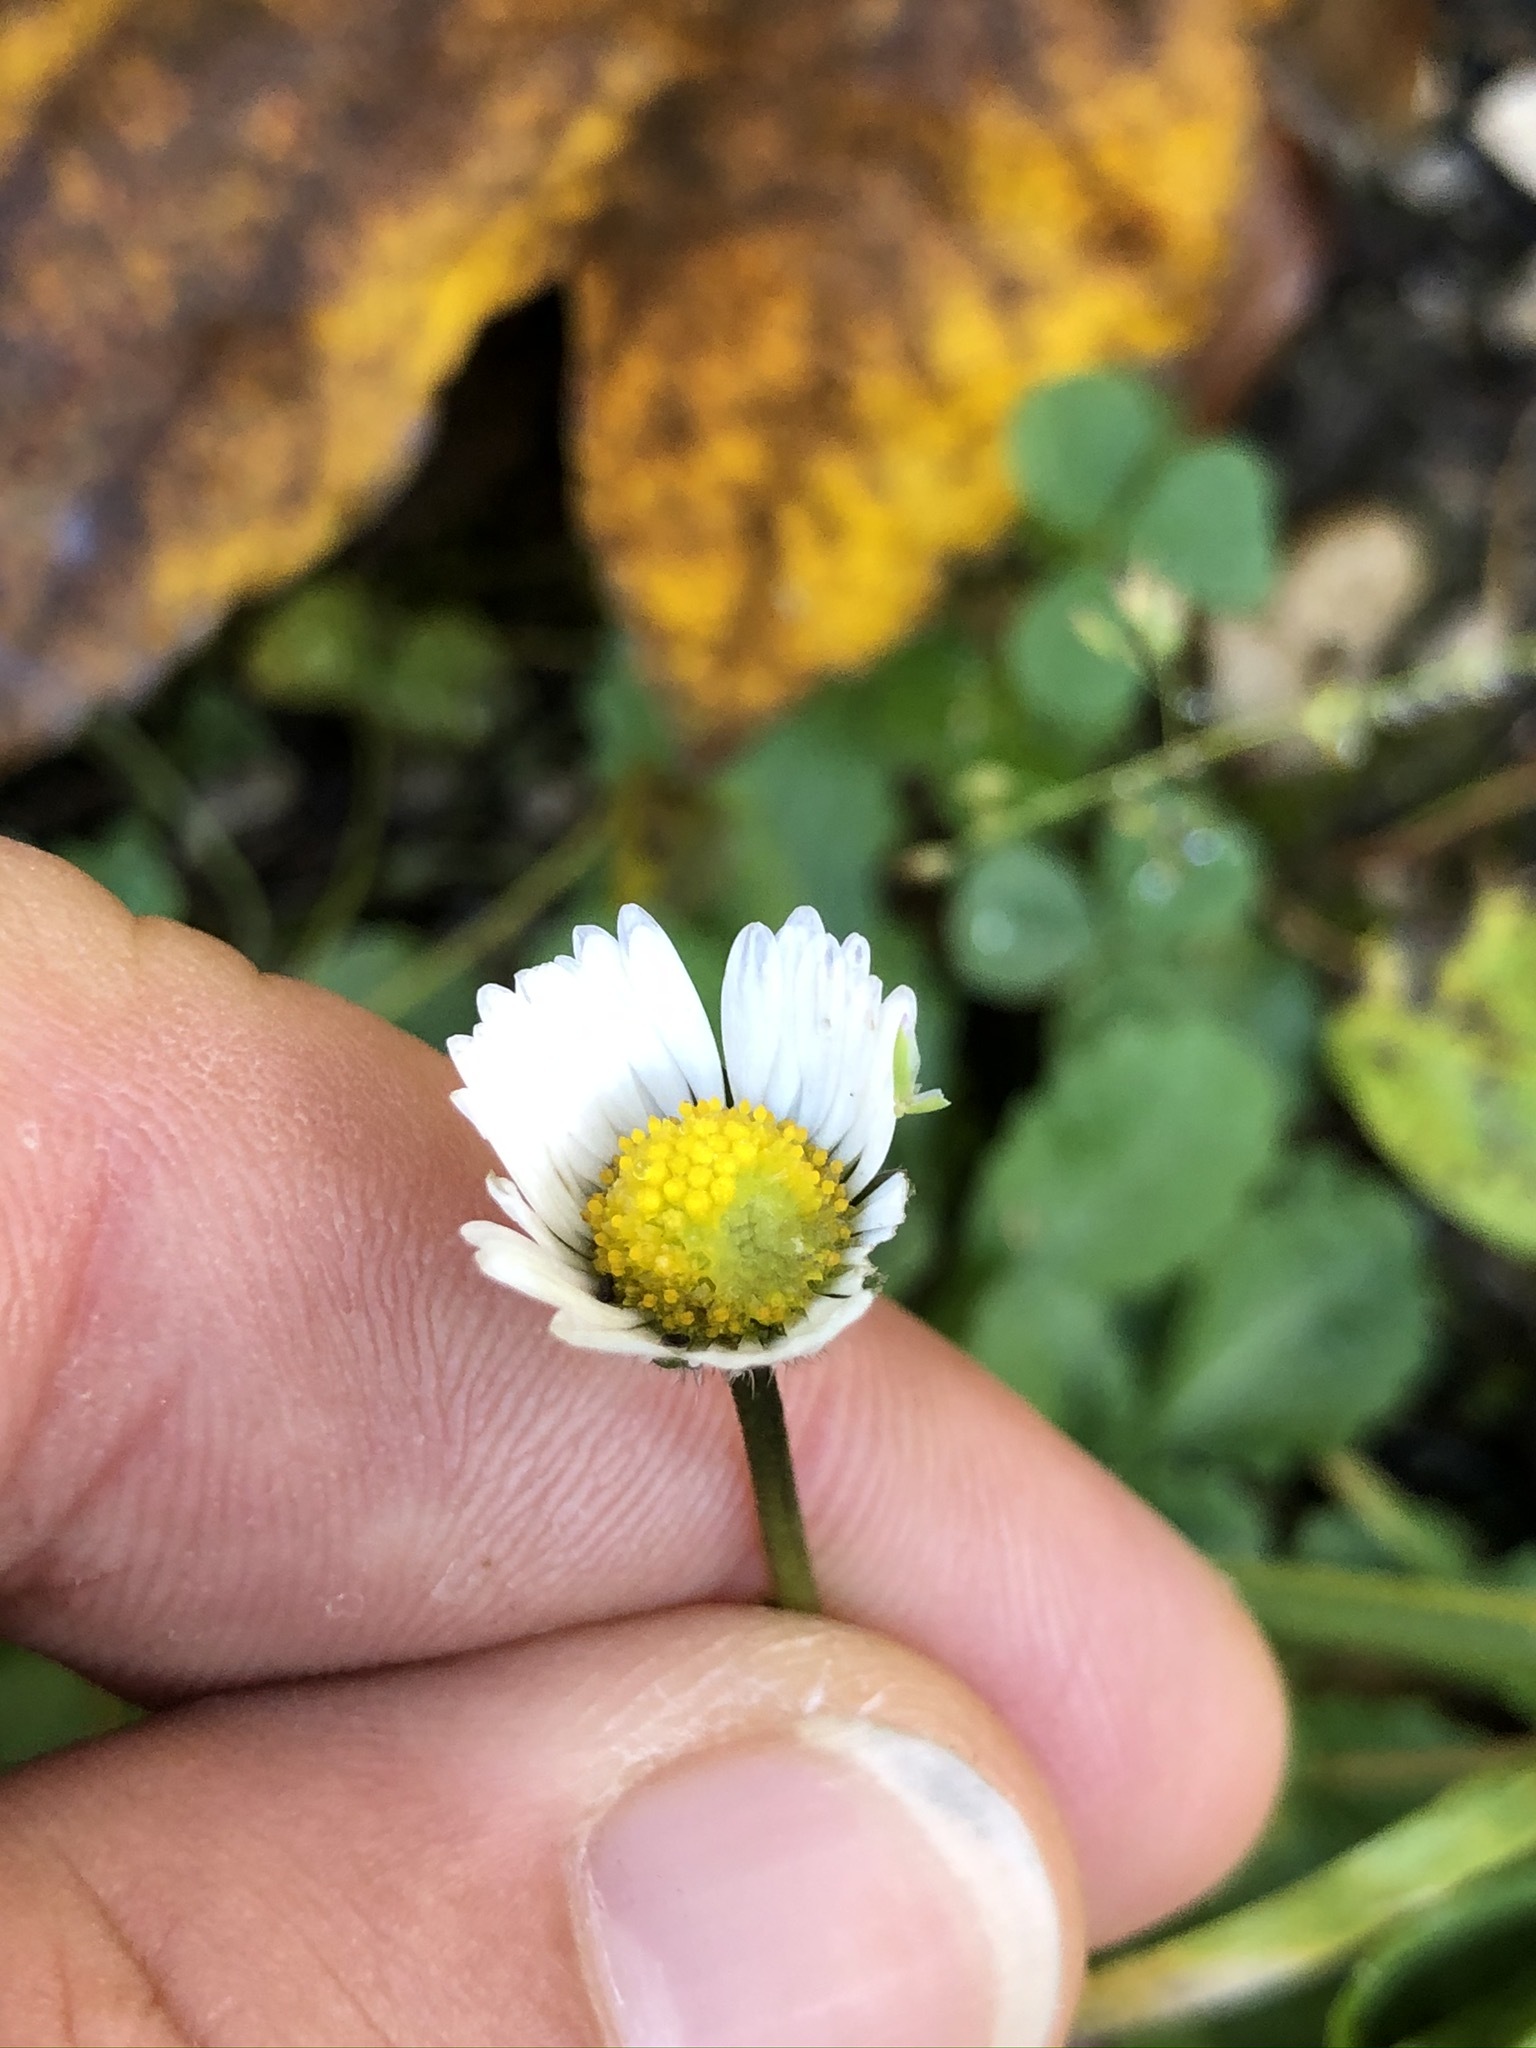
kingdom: Plantae
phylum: Tracheophyta
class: Magnoliopsida
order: Asterales
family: Asteraceae
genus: Bellis
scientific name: Bellis perennis
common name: Lawndaisy
